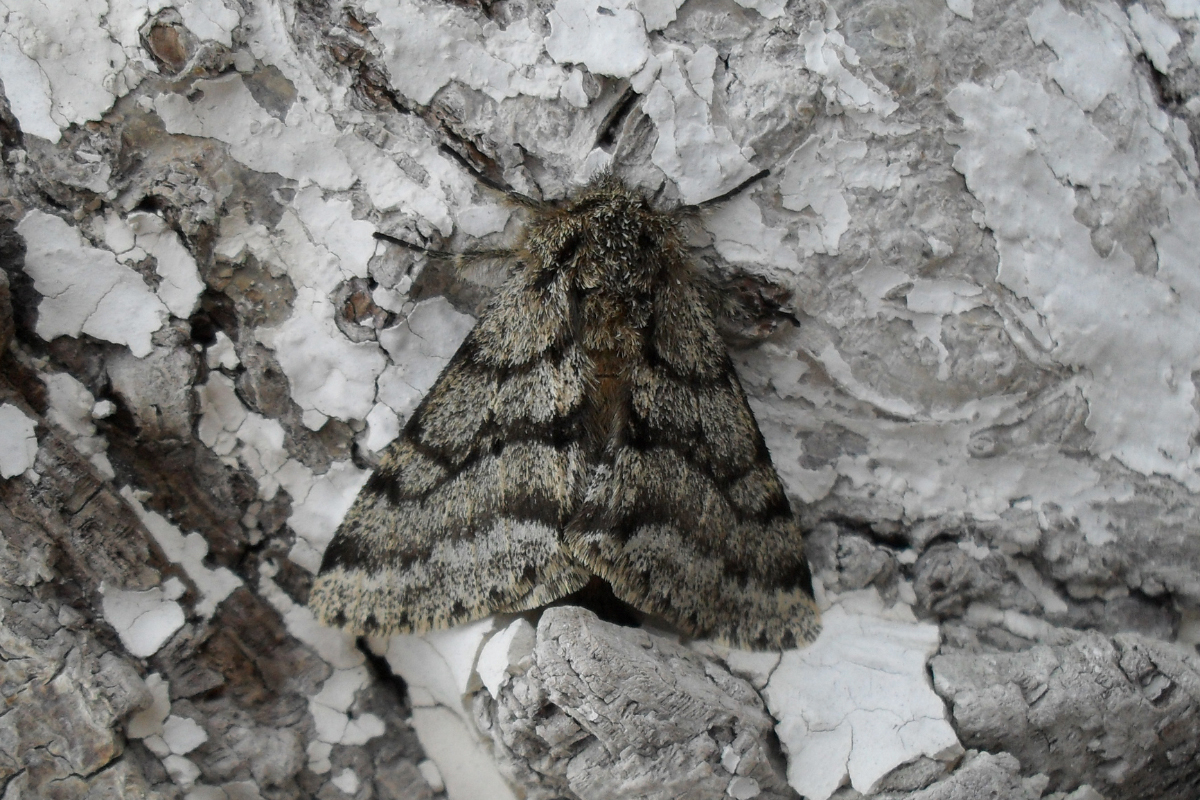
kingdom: Animalia
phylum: Arthropoda
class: Insecta
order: Lepidoptera
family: Geometridae
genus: Lycia
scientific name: Lycia hirtaria
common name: Brindled beauty
